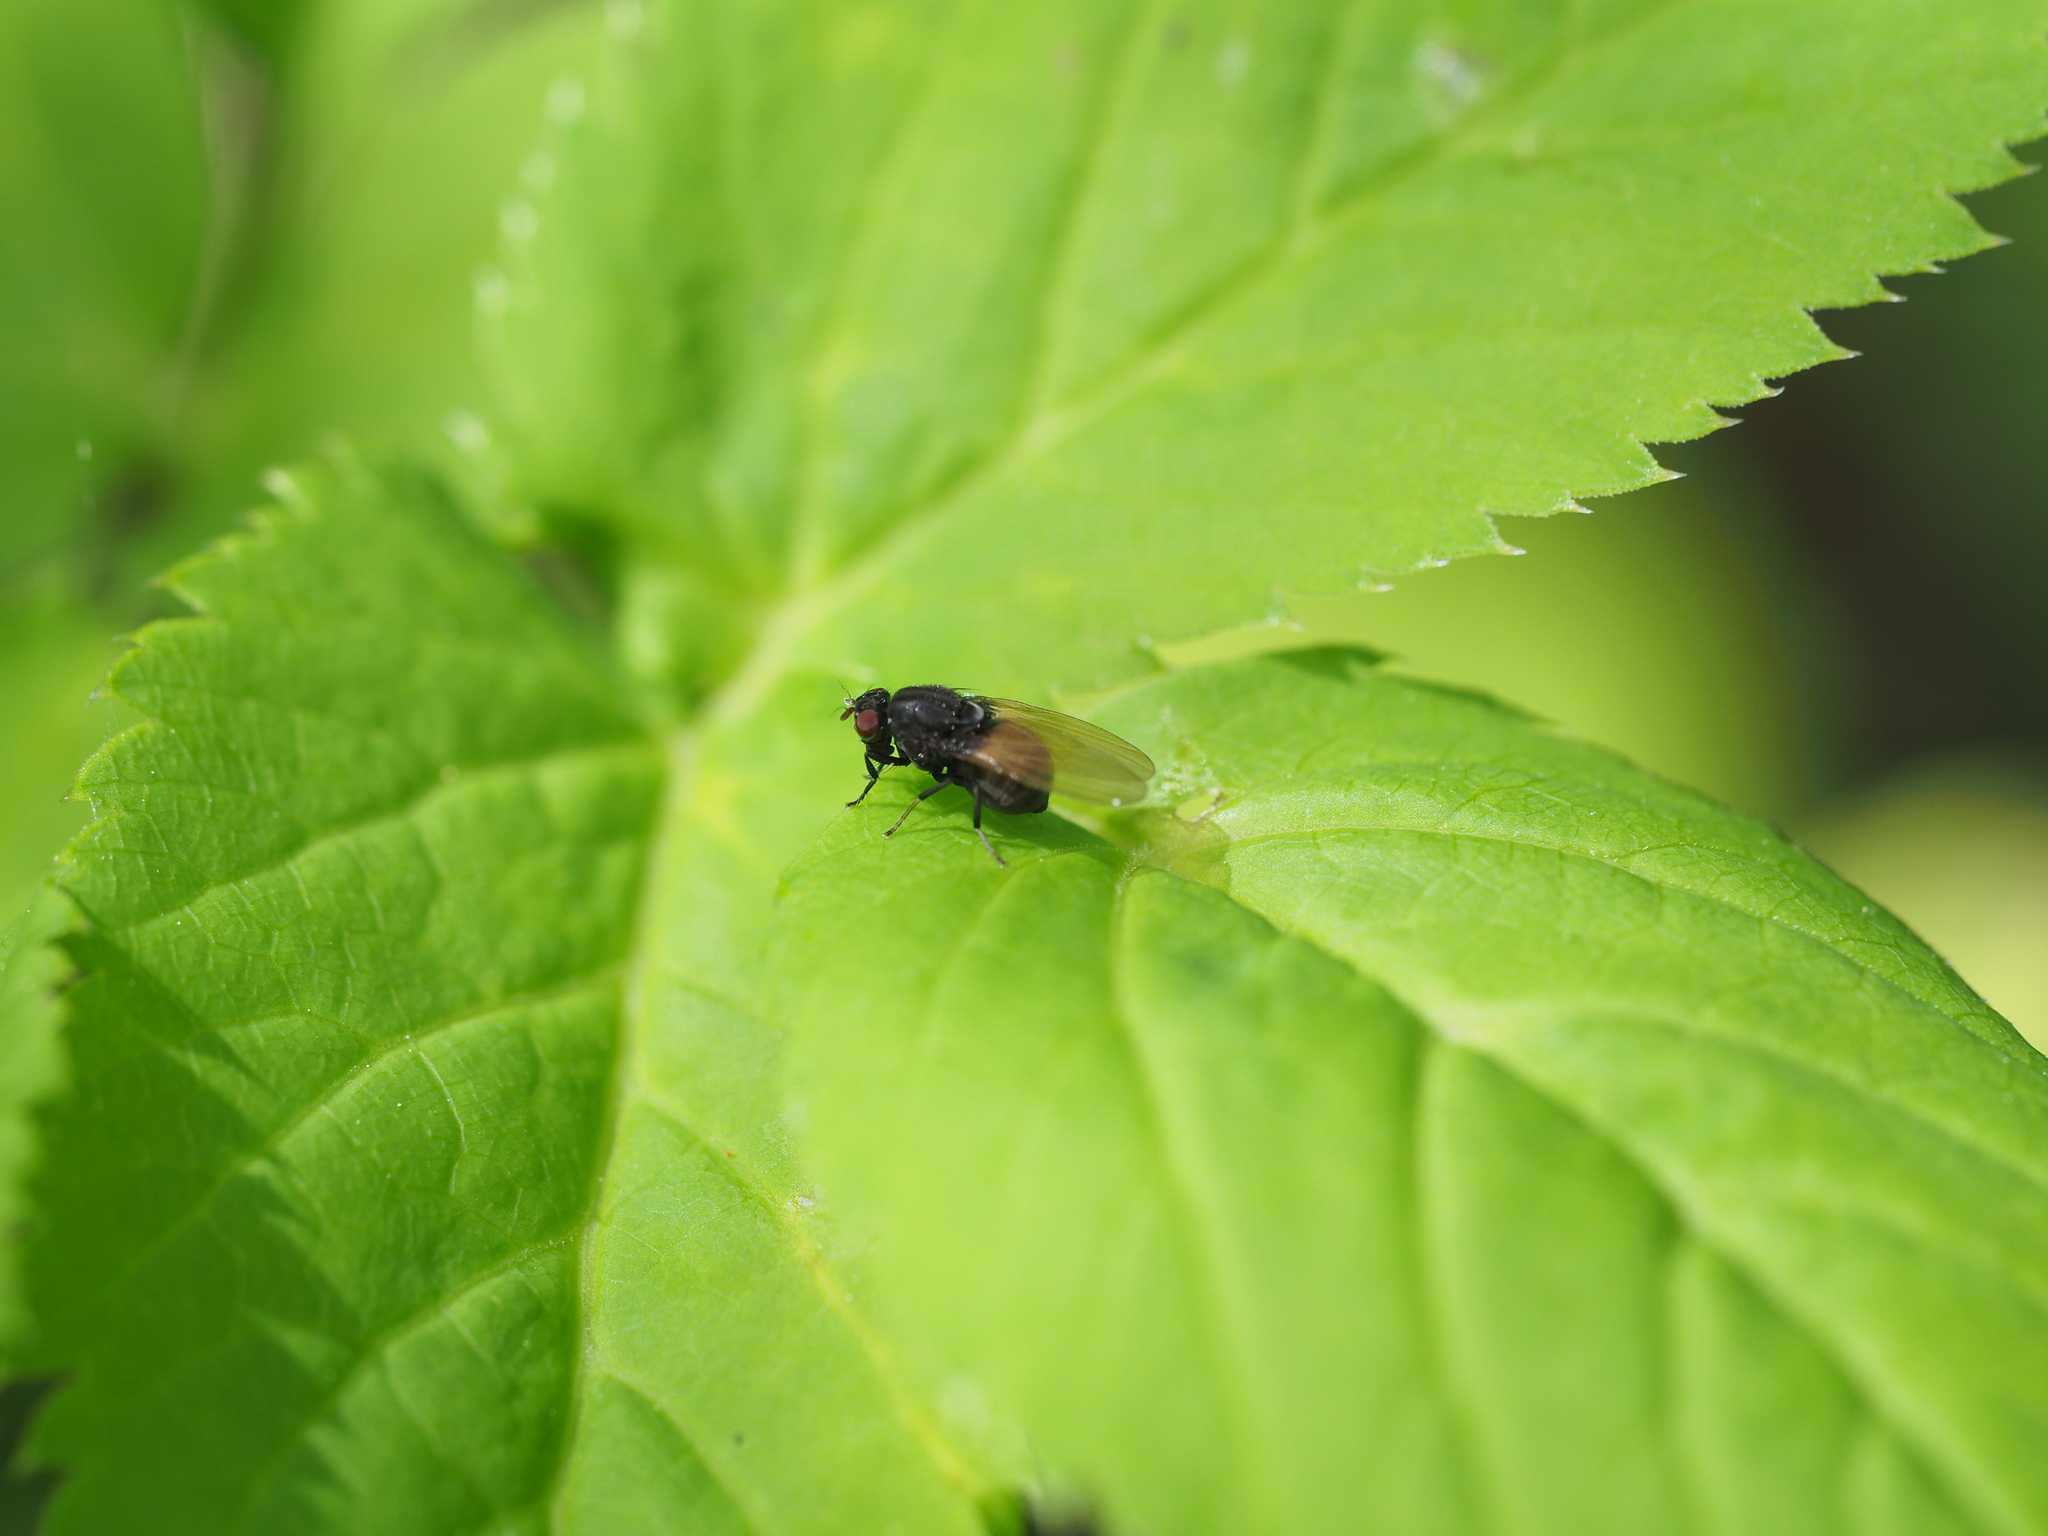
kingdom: Animalia
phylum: Arthropoda
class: Insecta
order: Diptera
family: Lauxaniidae
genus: Minettia
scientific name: Minettia longipennis
